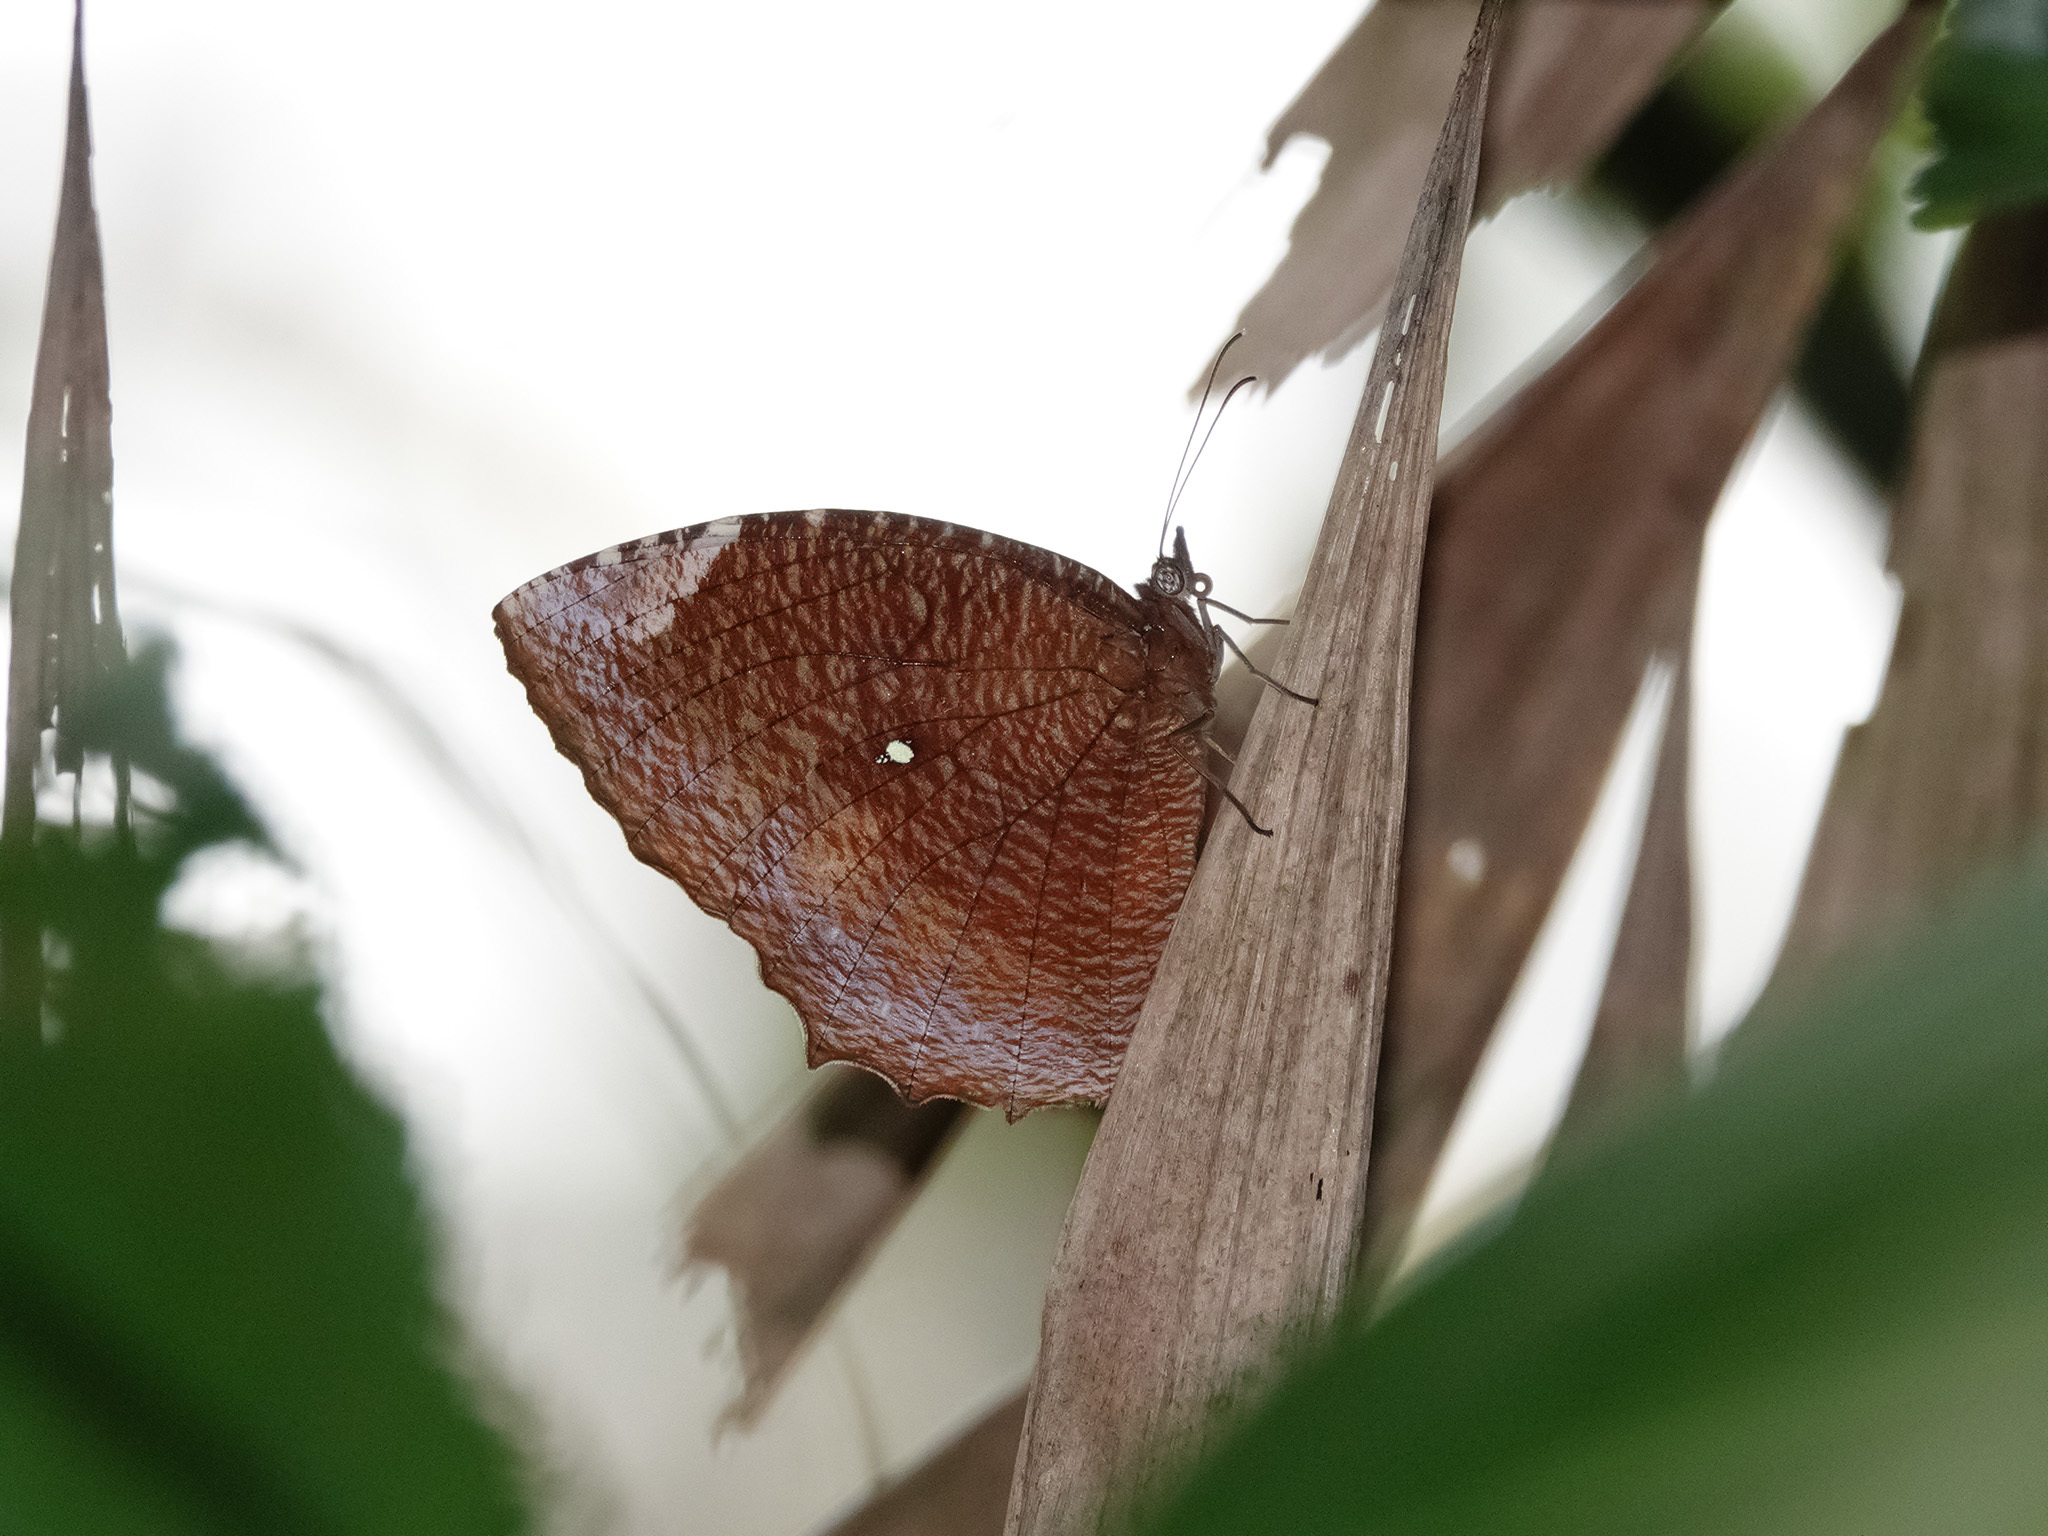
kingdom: Animalia
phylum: Arthropoda
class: Insecta
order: Lepidoptera
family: Nymphalidae
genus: Elymnias
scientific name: Elymnias hypermnestra
